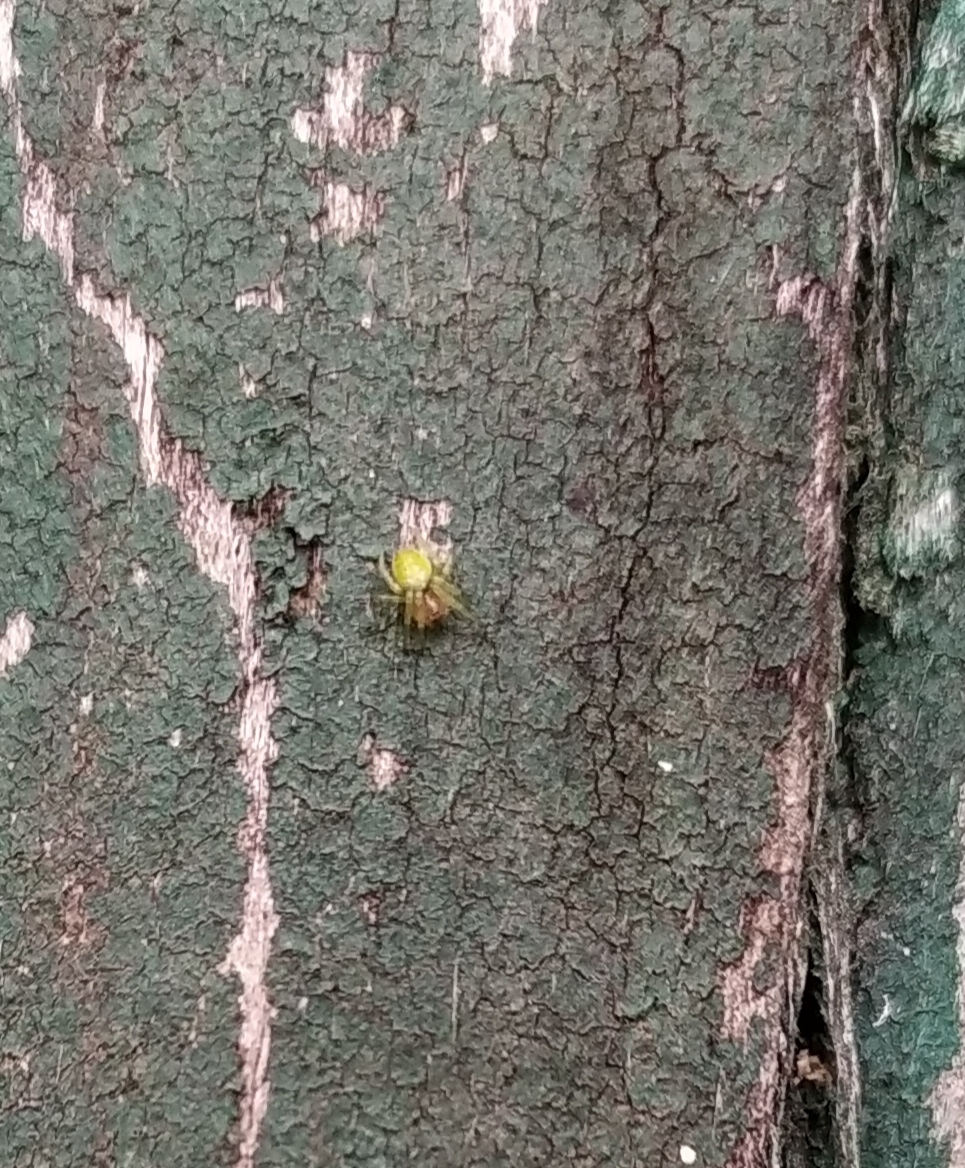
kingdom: Animalia
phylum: Arthropoda
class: Arachnida
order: Araneae
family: Araneidae
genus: Araniella
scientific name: Araniella
